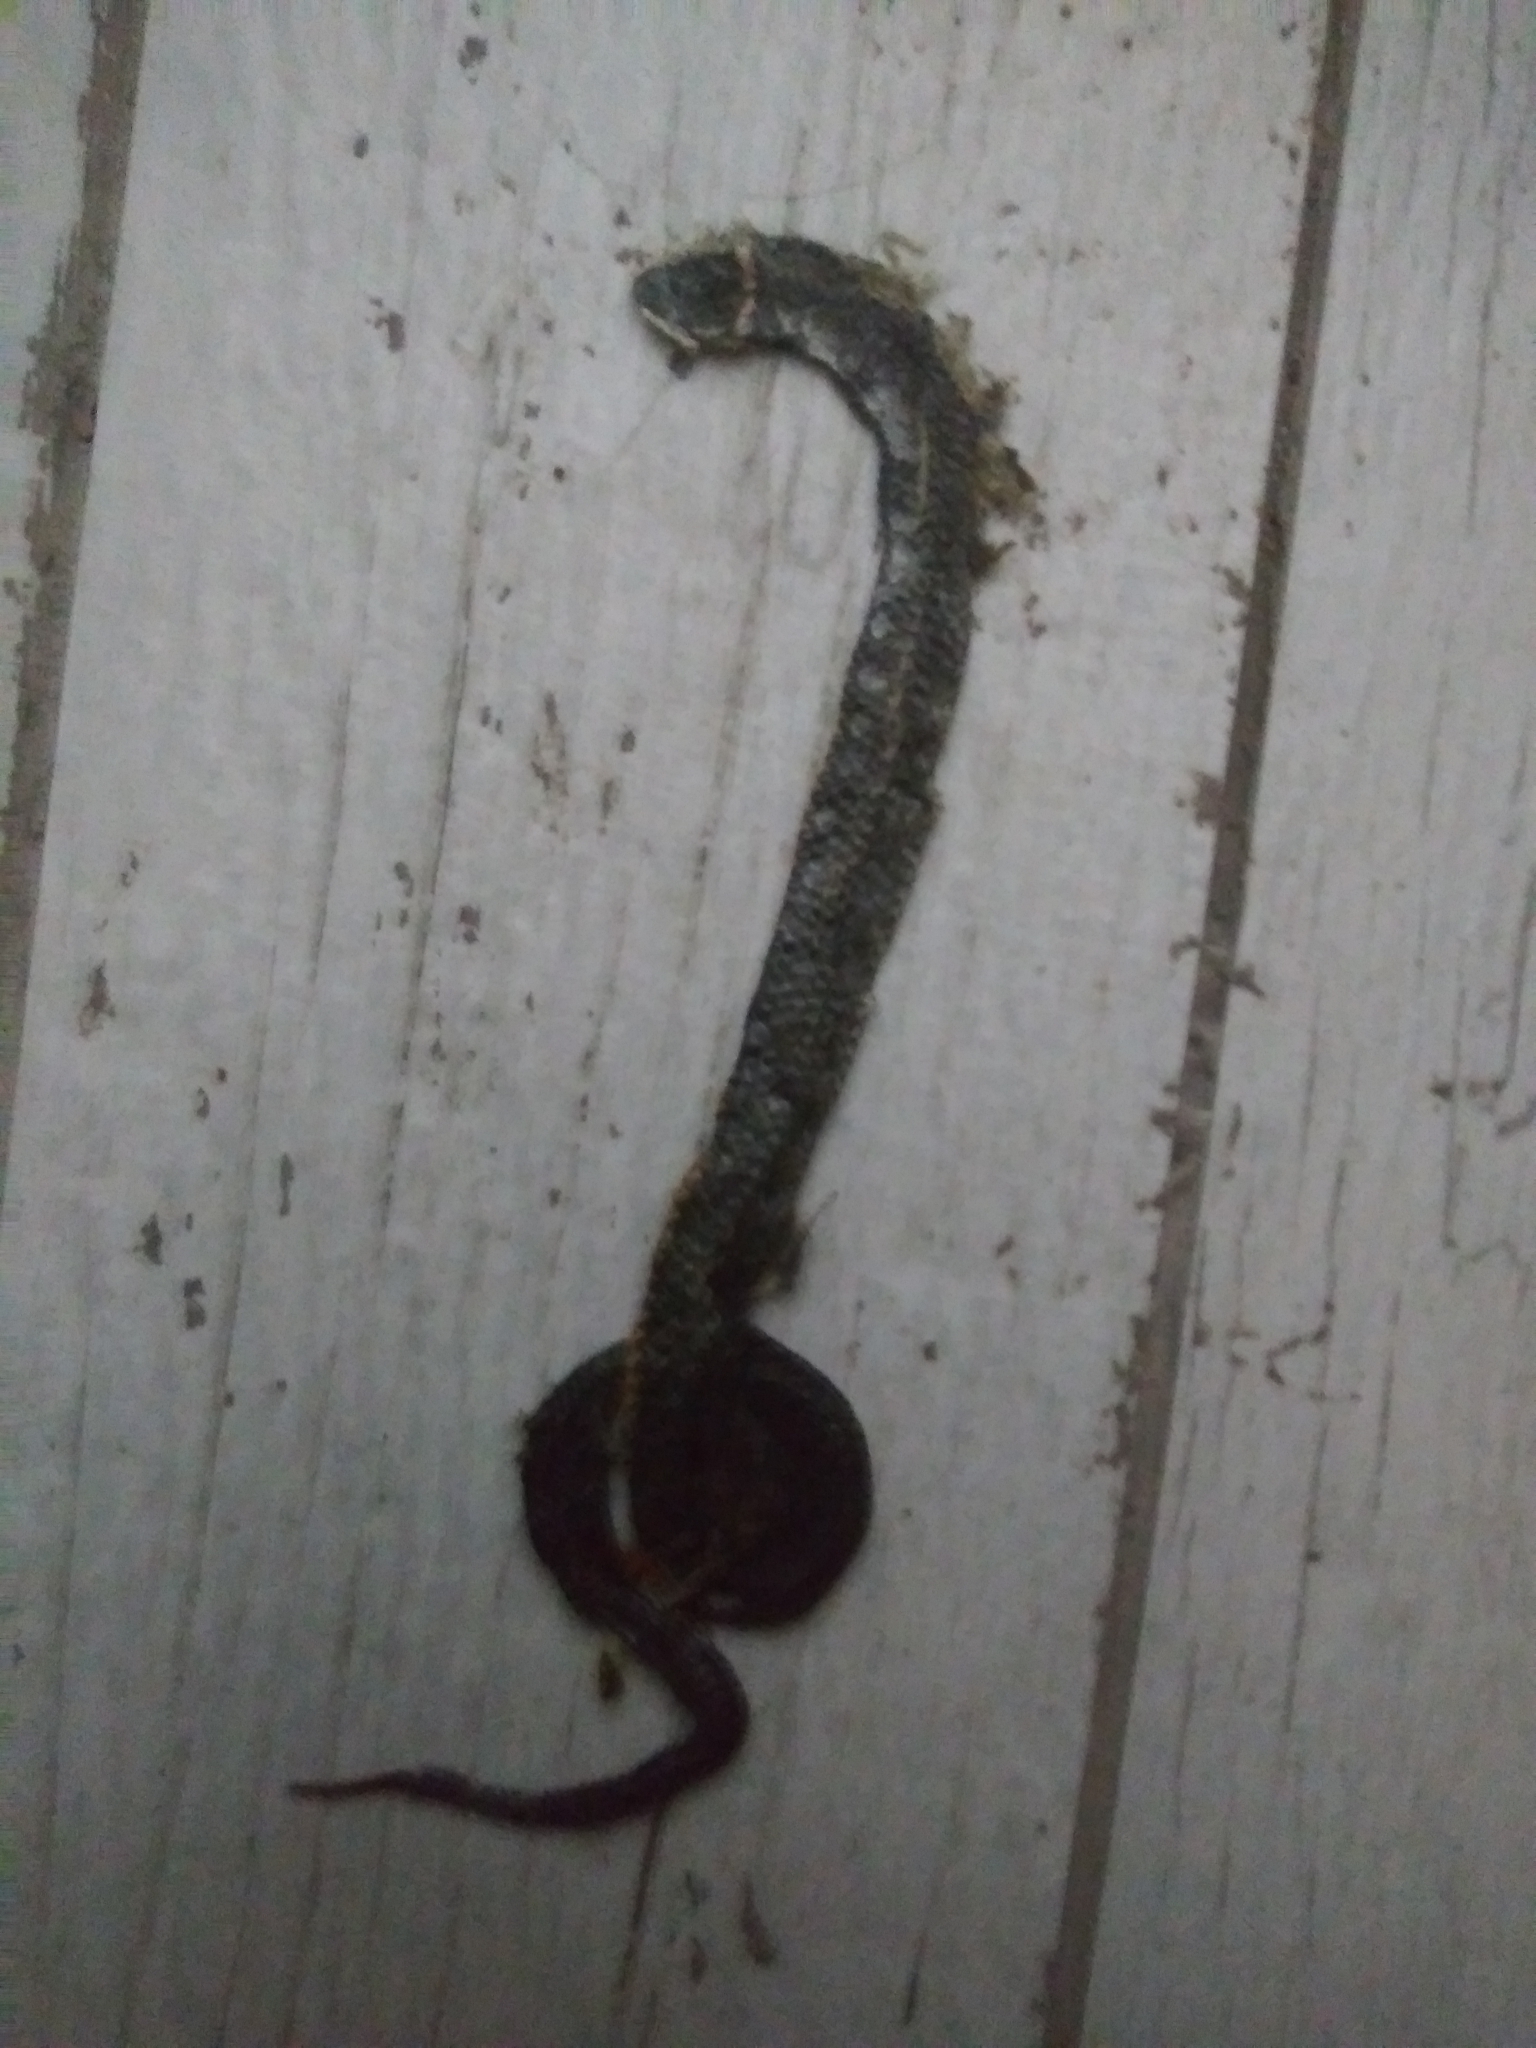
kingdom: Animalia
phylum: Chordata
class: Squamata
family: Colubridae
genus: Diadophis
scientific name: Diadophis punctatus
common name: Ringneck snake
